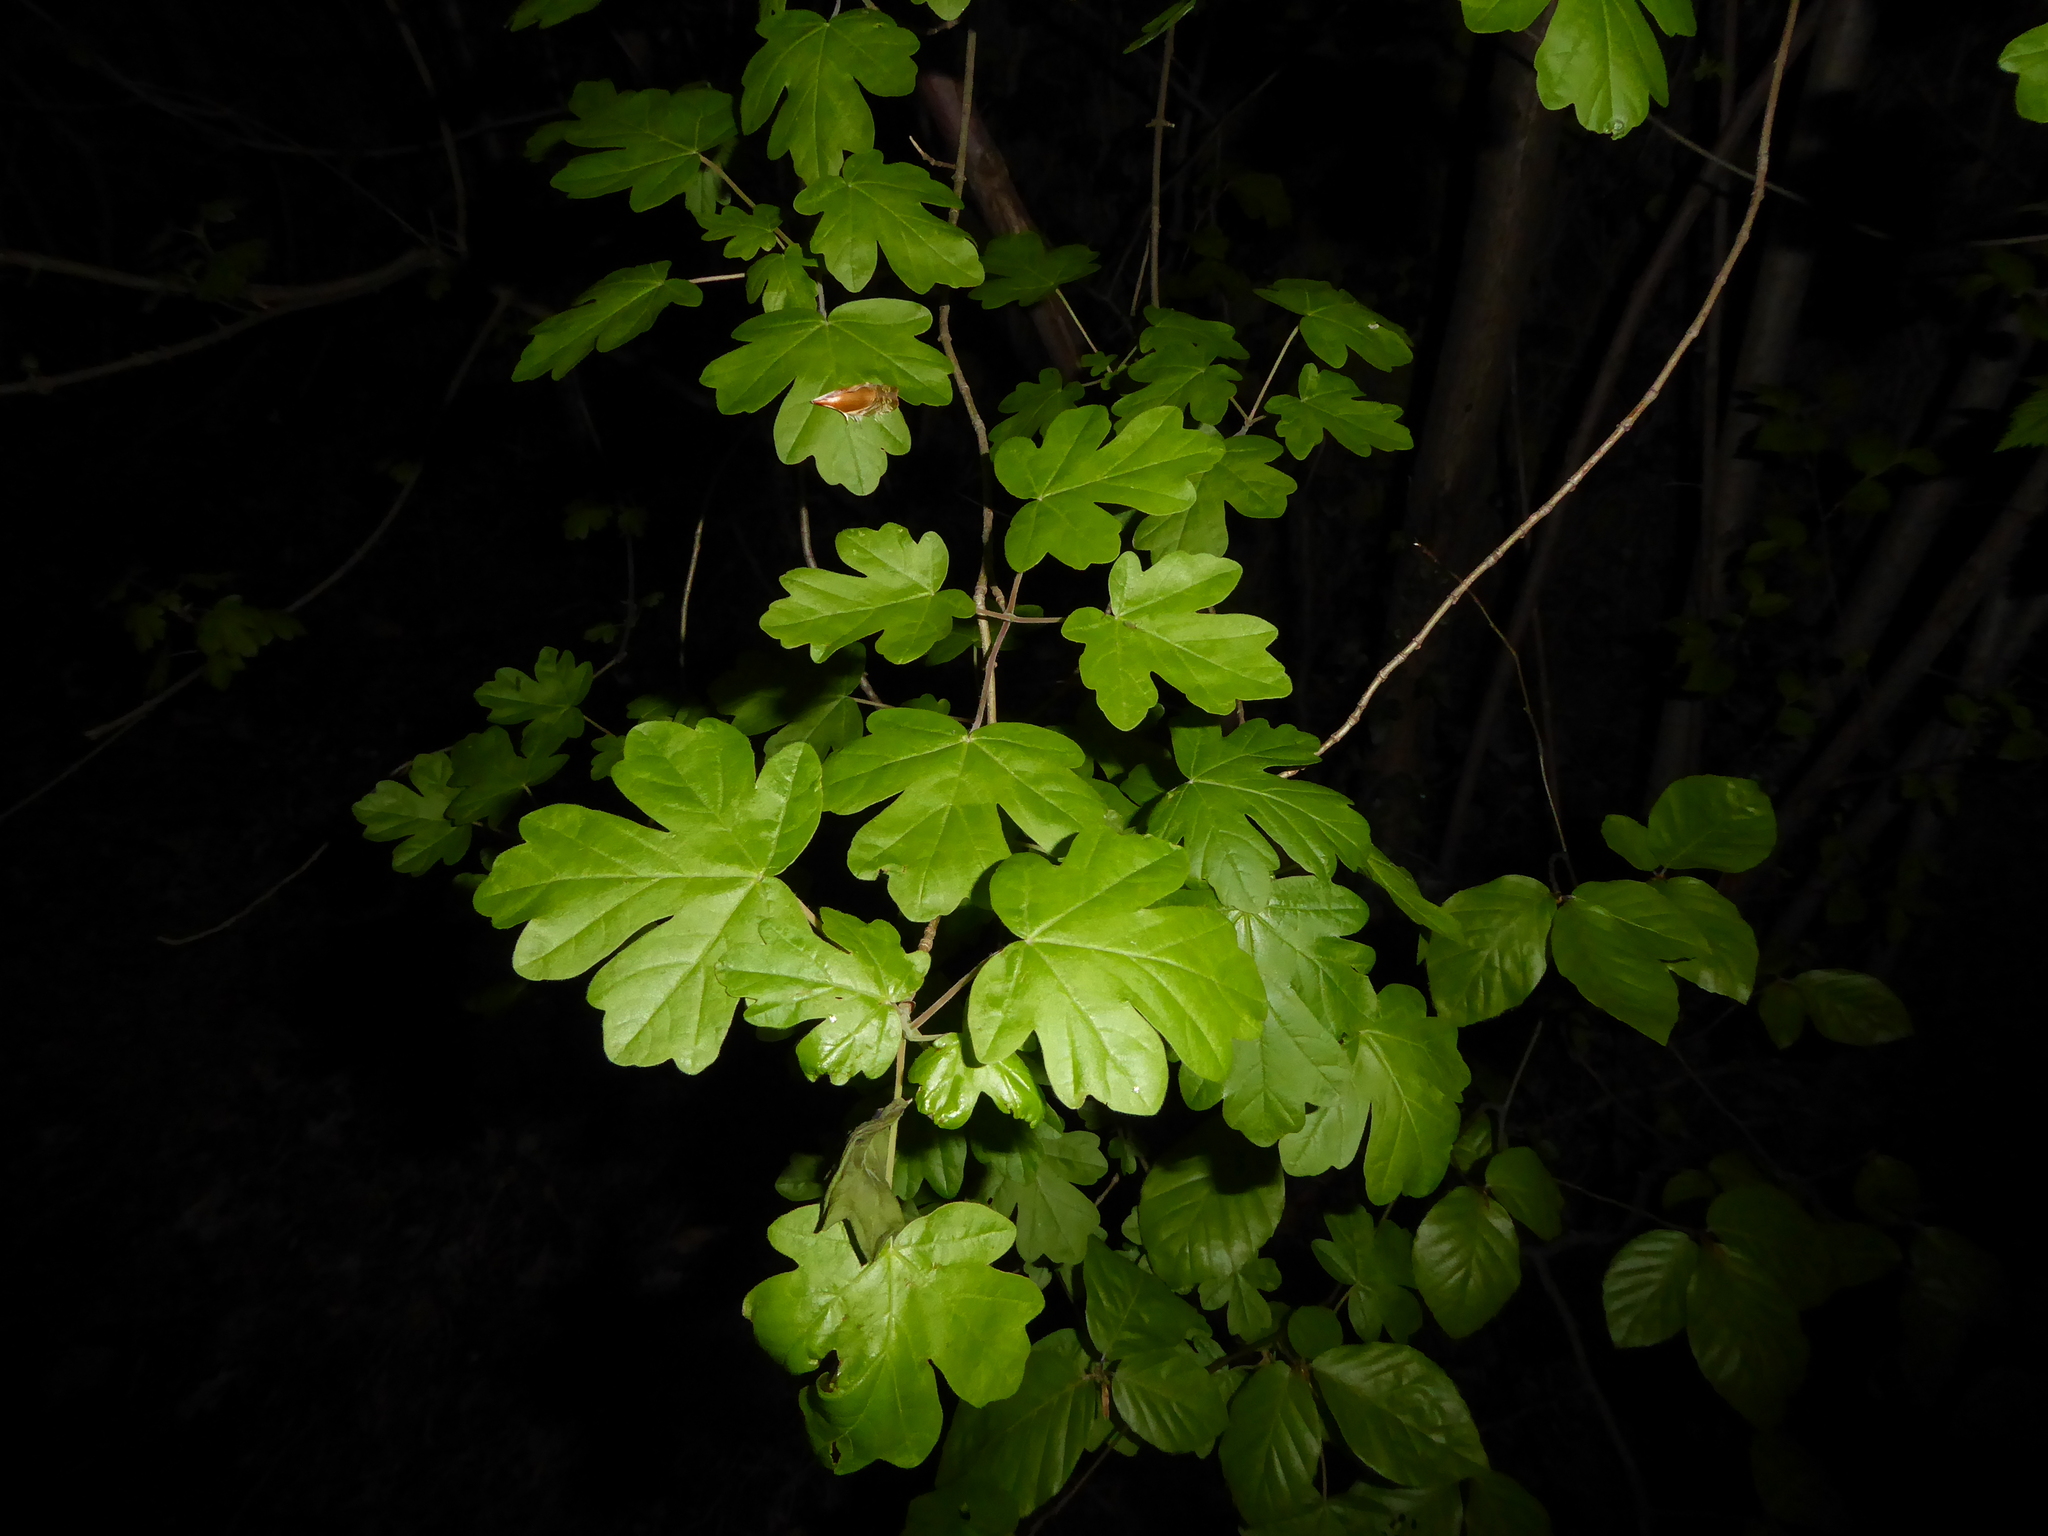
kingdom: Plantae
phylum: Tracheophyta
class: Magnoliopsida
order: Sapindales
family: Sapindaceae
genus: Acer
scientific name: Acer campestre
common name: Field maple
